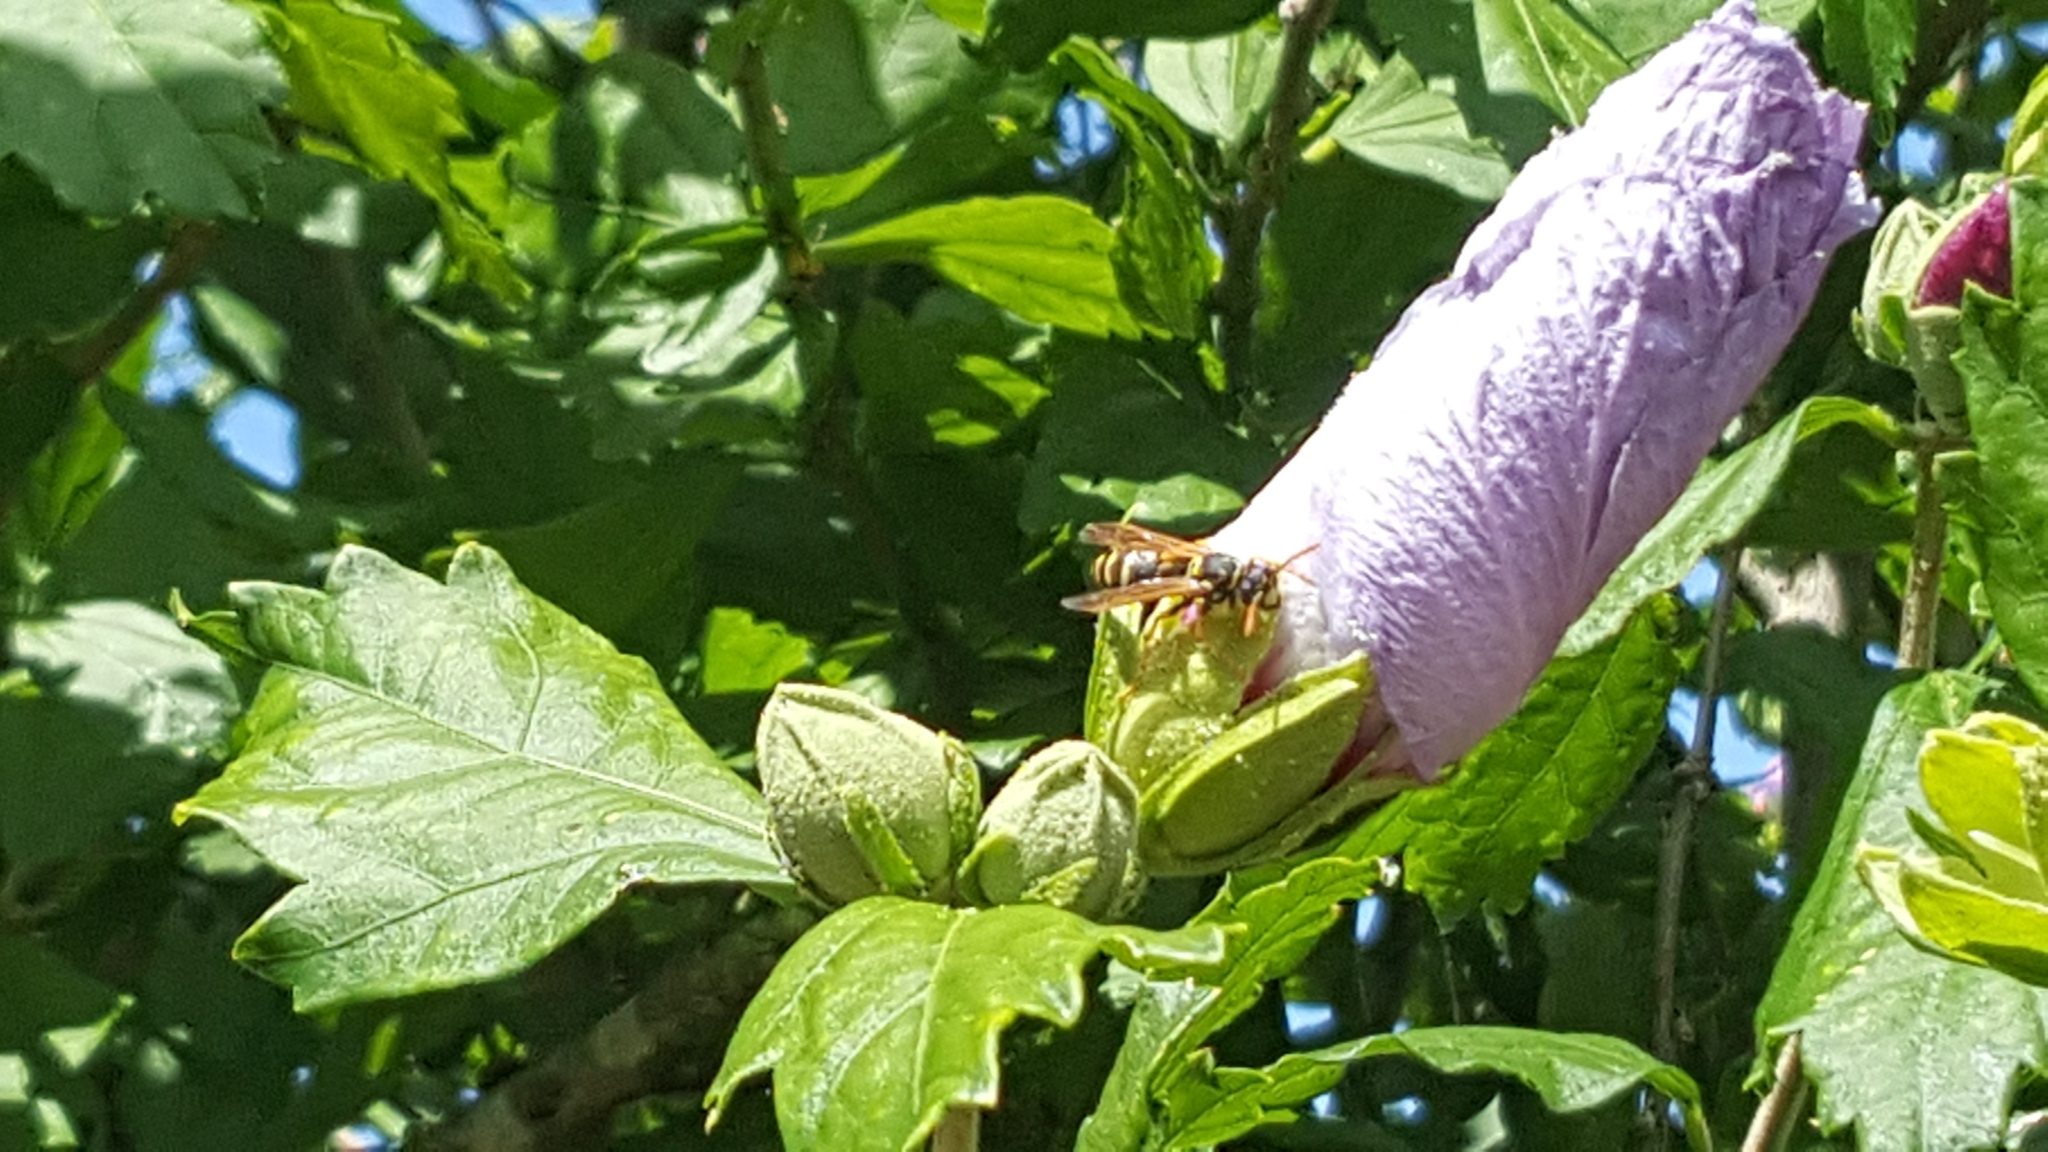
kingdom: Animalia
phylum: Arthropoda
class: Insecta
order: Hymenoptera
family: Eumenidae
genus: Polistes
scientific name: Polistes dominula
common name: Paper wasp
